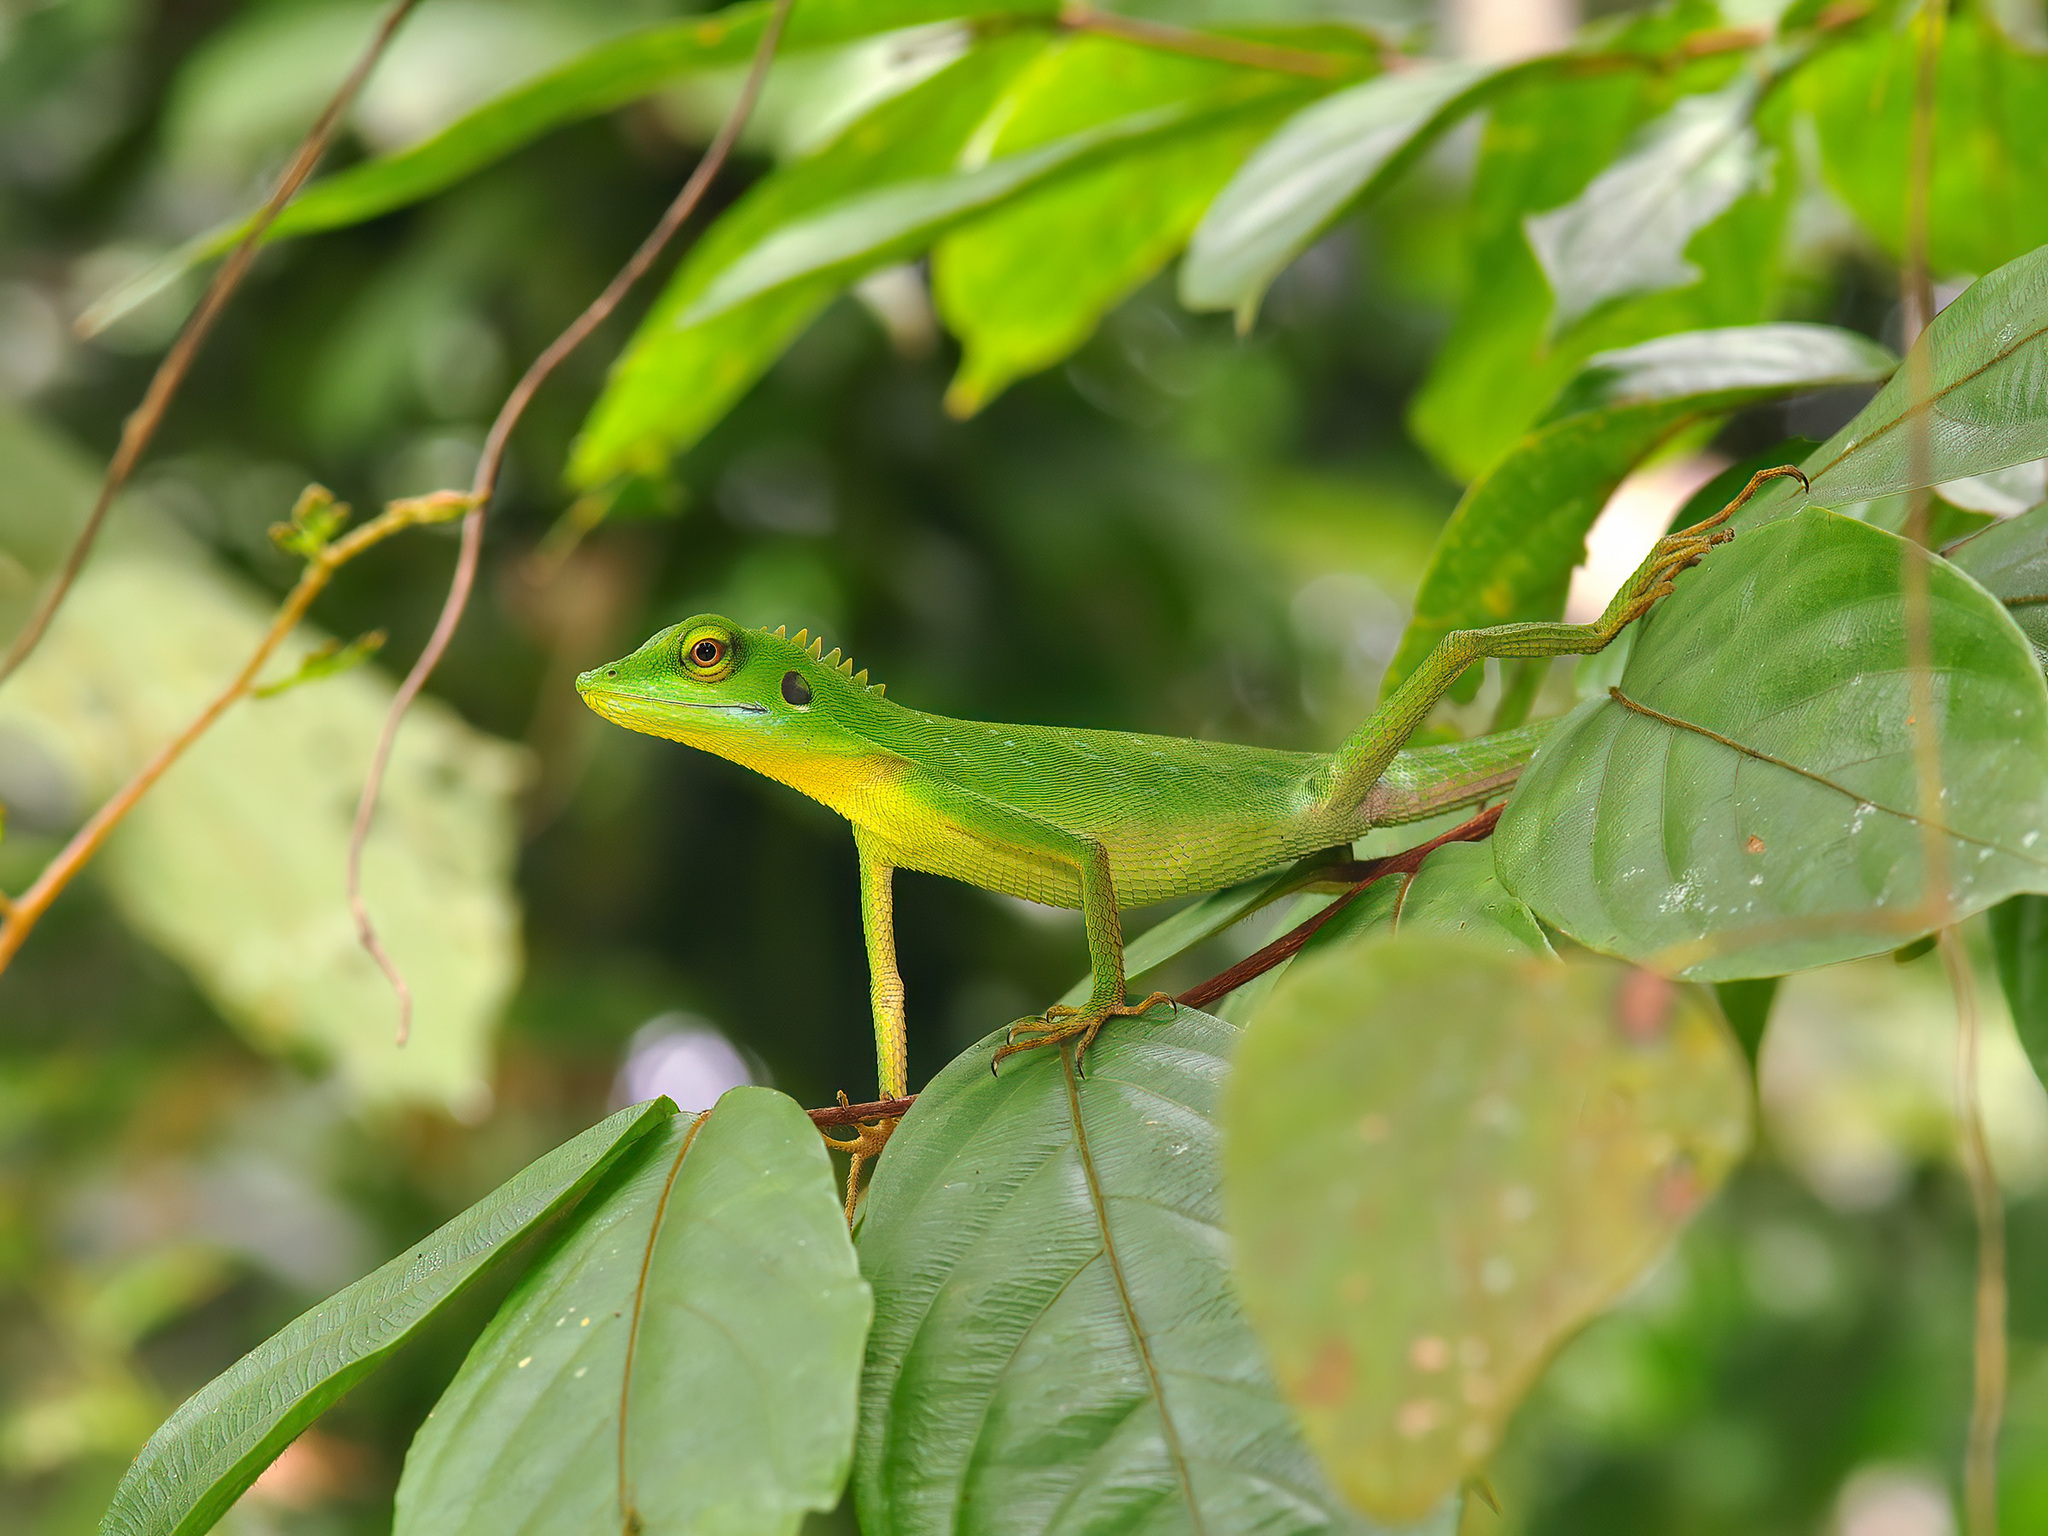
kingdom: Animalia
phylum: Chordata
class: Squamata
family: Agamidae
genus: Bronchocela
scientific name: Bronchocela cristatella
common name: Green crested lizard
